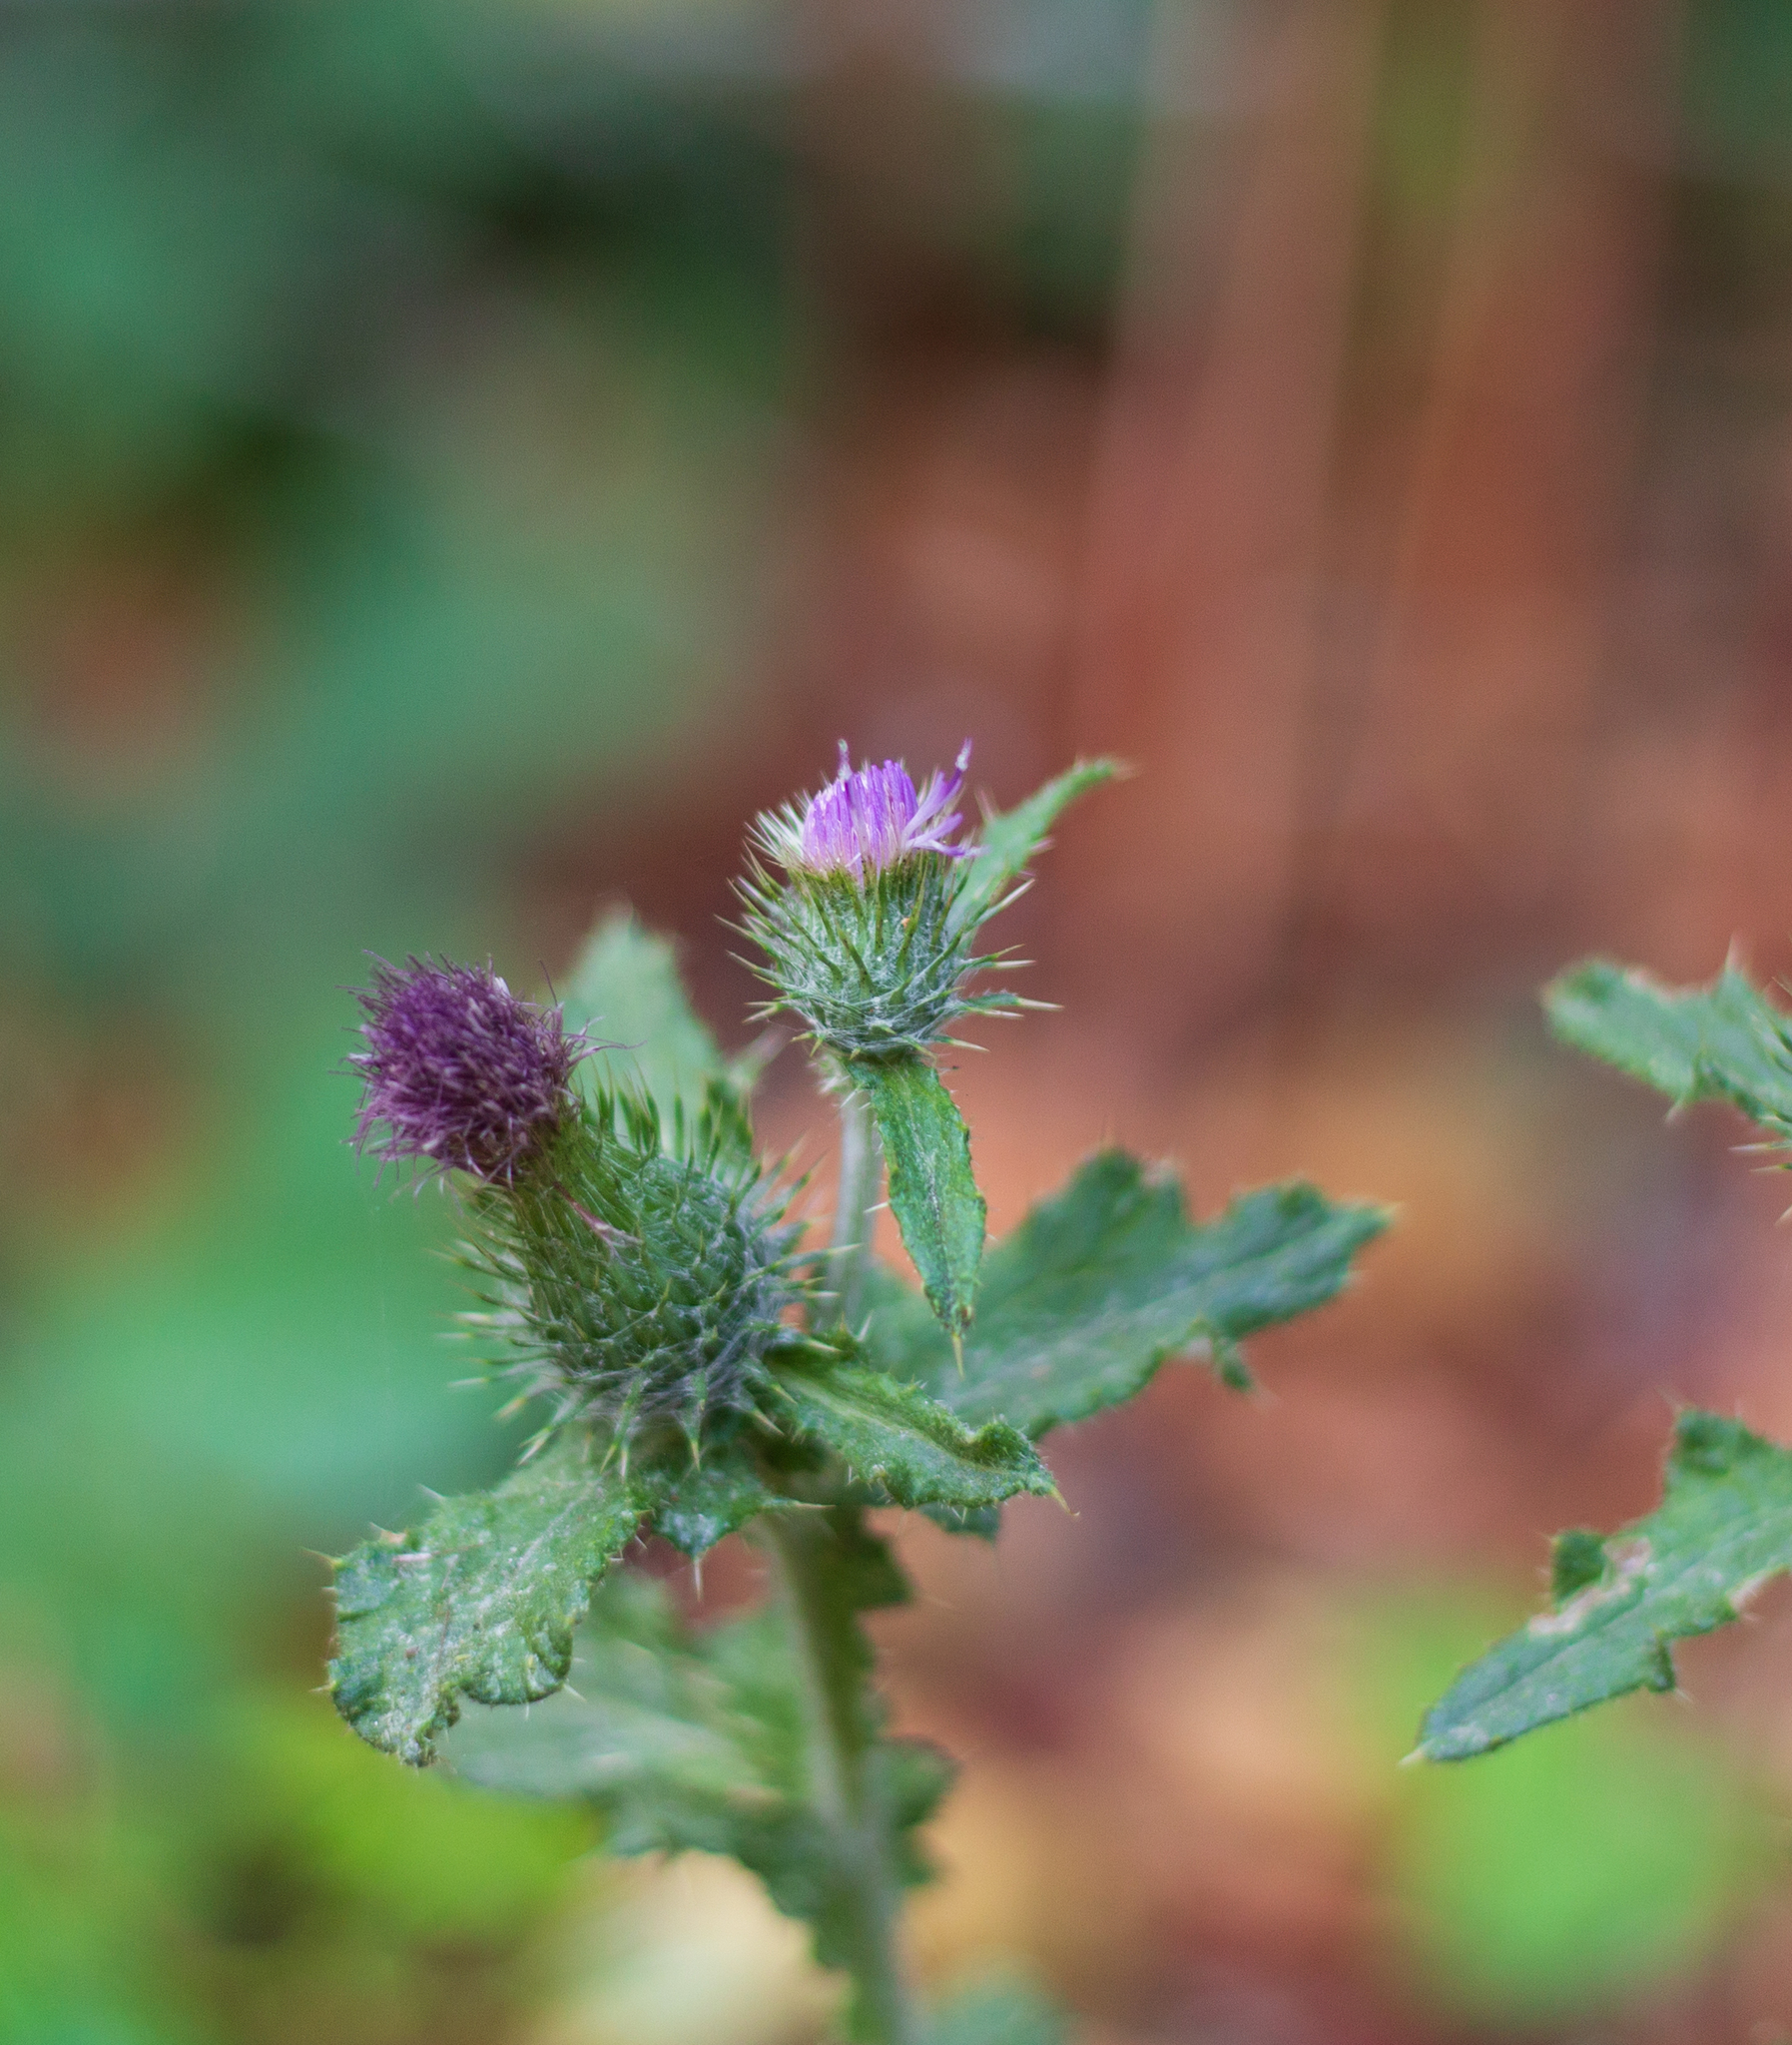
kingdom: Plantae
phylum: Tracheophyta
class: Magnoliopsida
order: Asterales
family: Asteraceae
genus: Cirsium
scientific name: Cirsium arvense
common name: Creeping thistle
